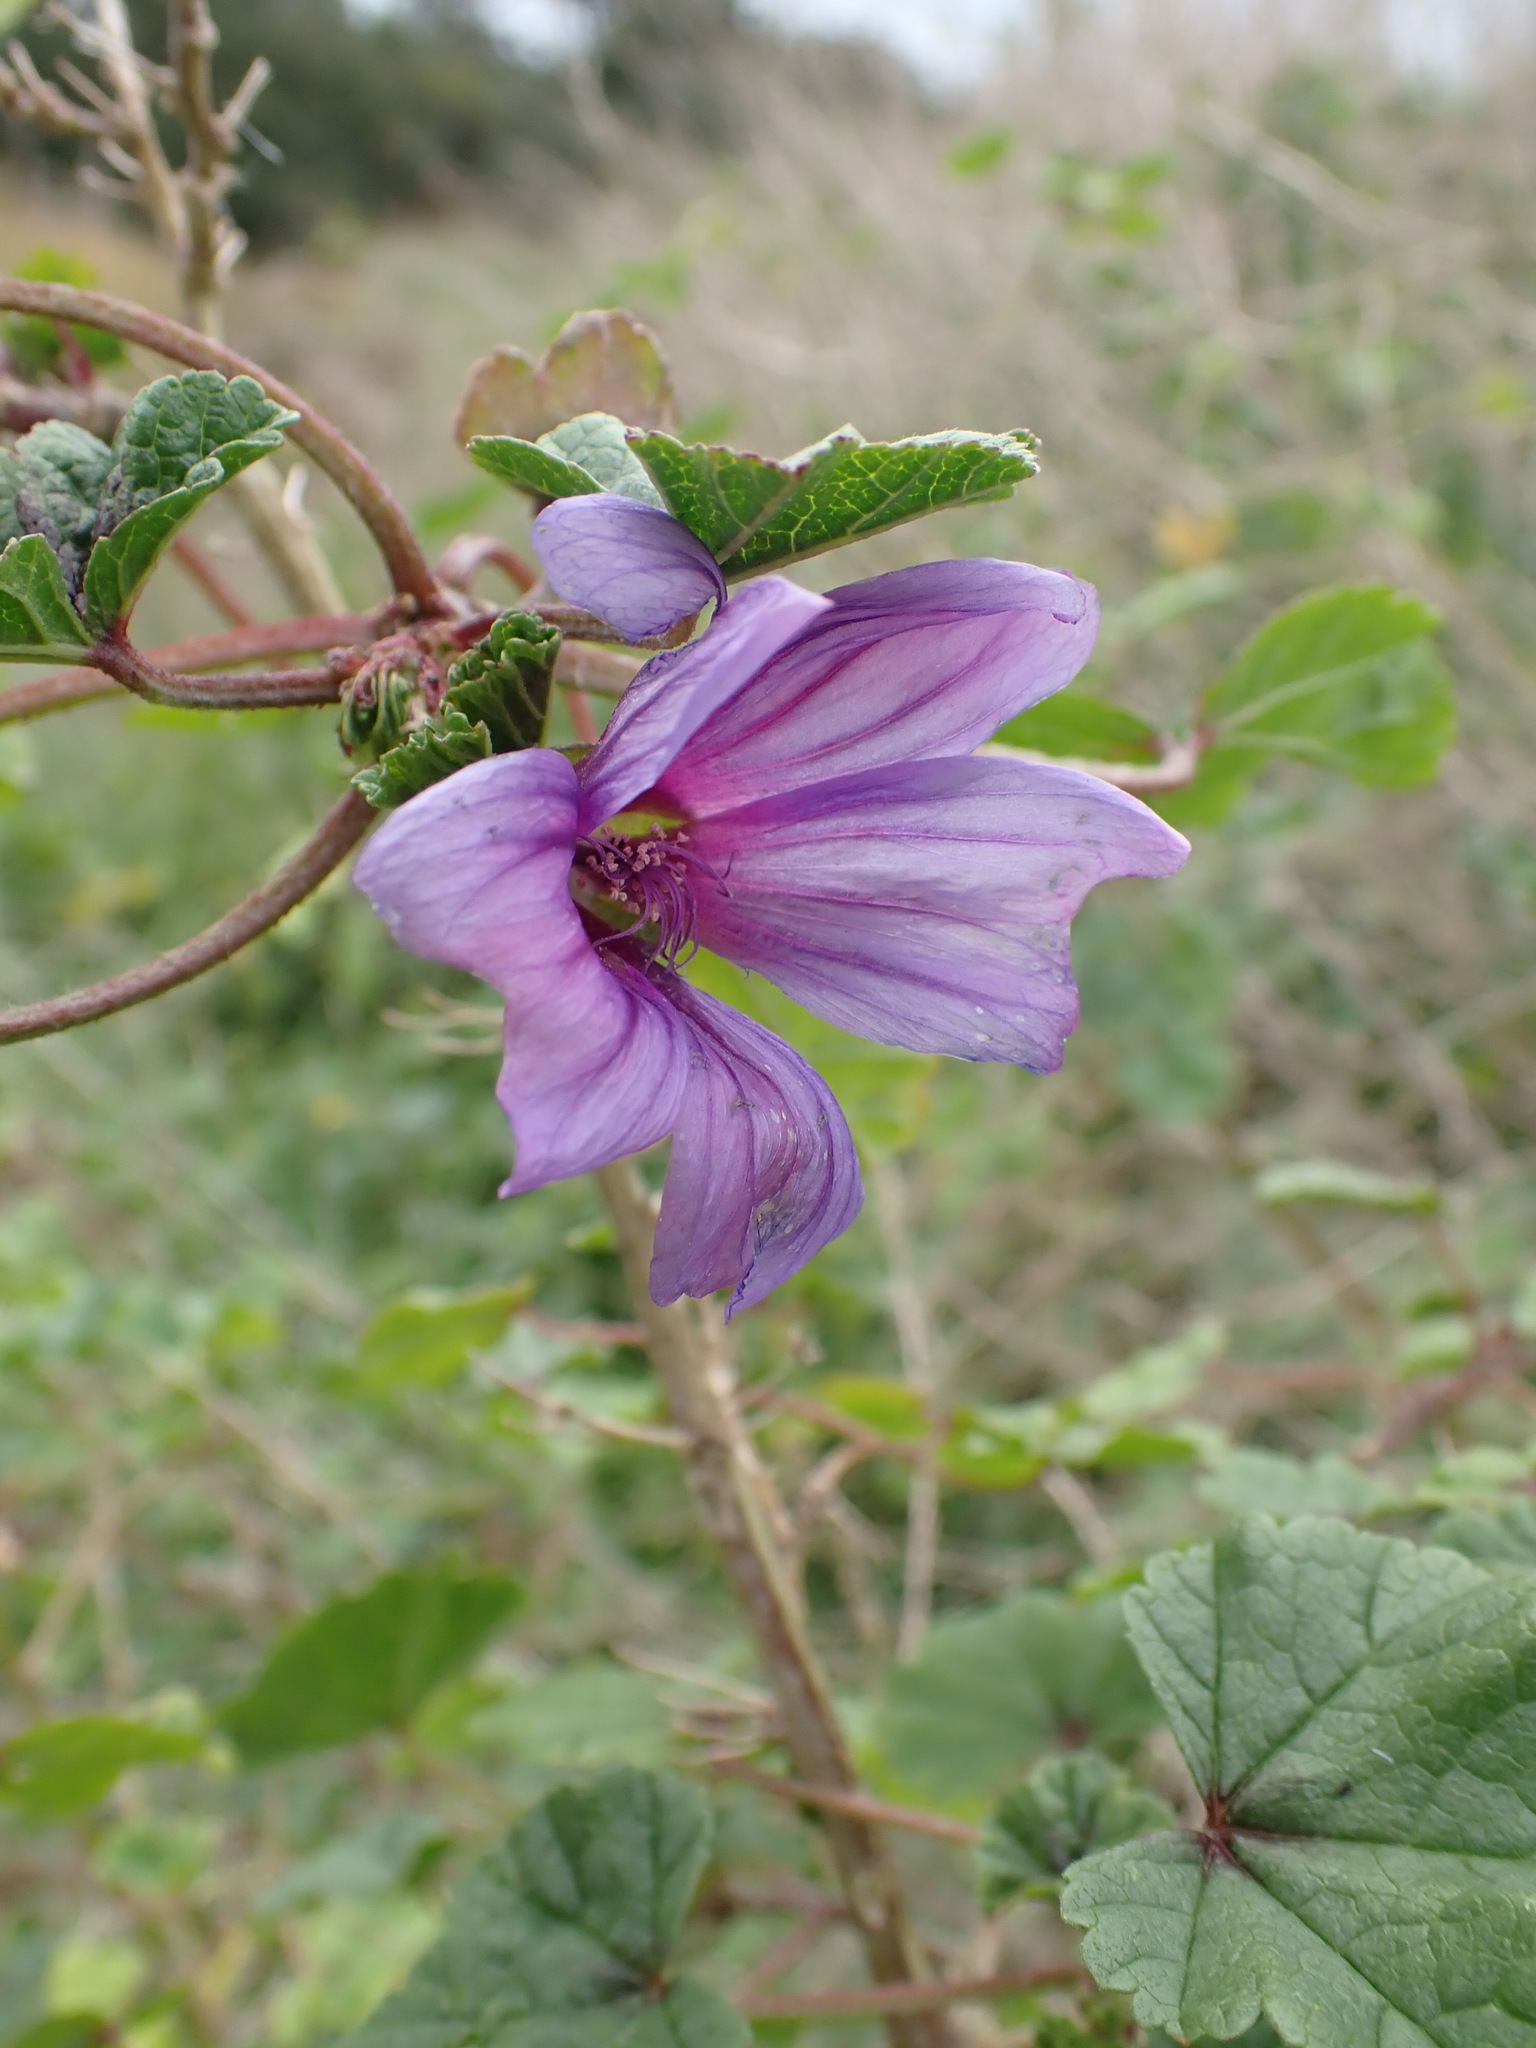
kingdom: Plantae
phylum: Tracheophyta
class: Magnoliopsida
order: Malvales
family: Malvaceae
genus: Malva
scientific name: Malva sylvestris
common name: Common mallow
